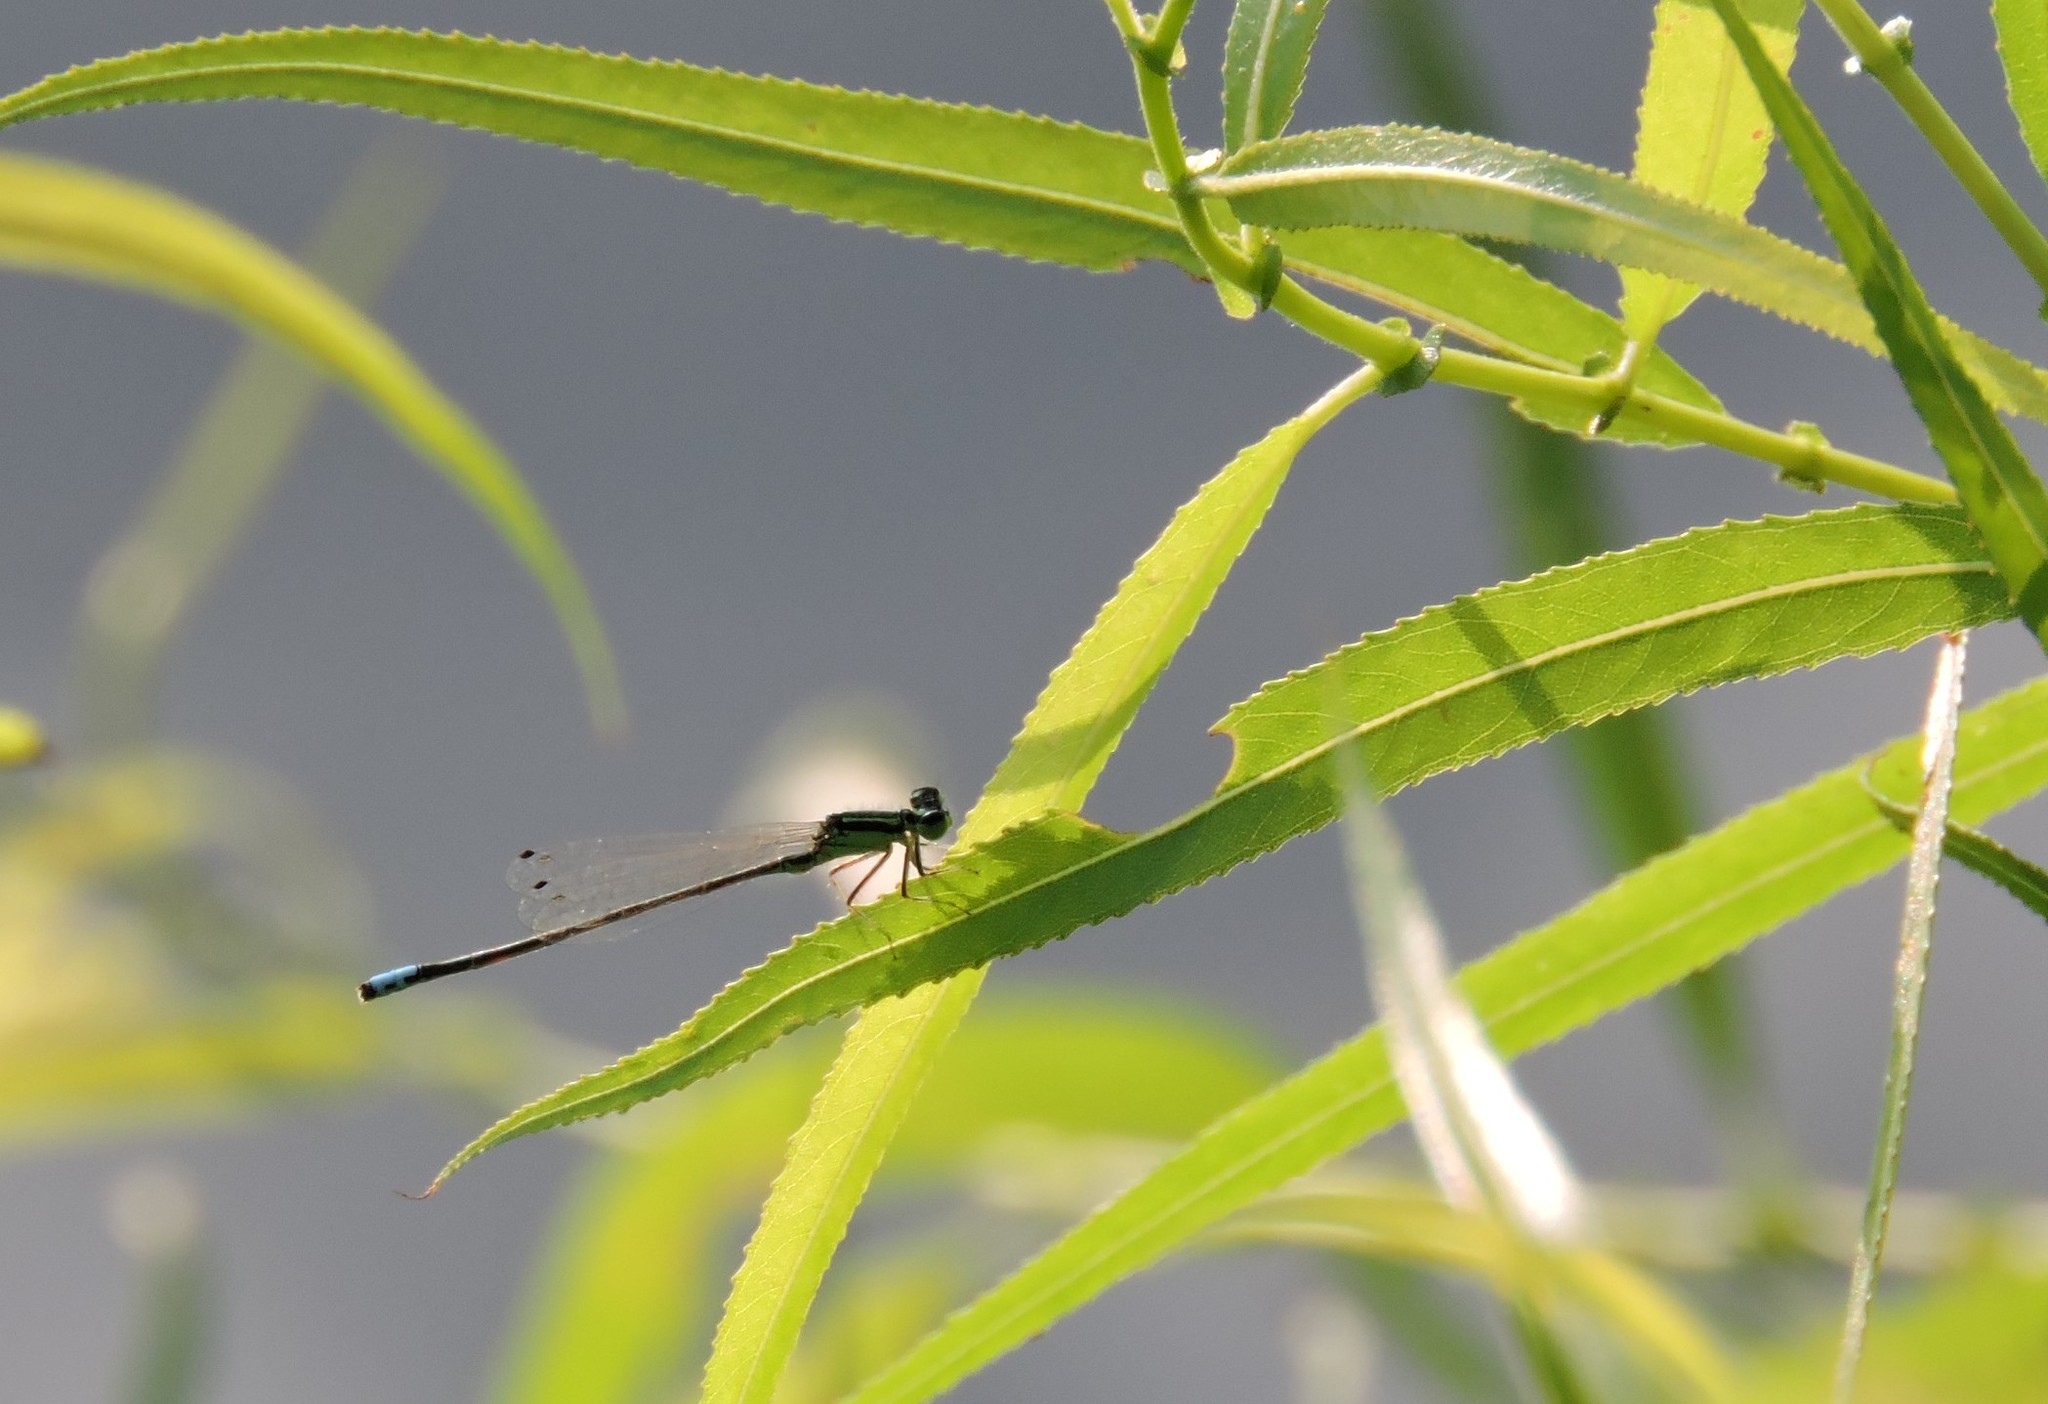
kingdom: Animalia
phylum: Arthropoda
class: Insecta
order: Odonata
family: Coenagrionidae
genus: Ischnura
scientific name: Ischnura verticalis
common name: Eastern forktail
